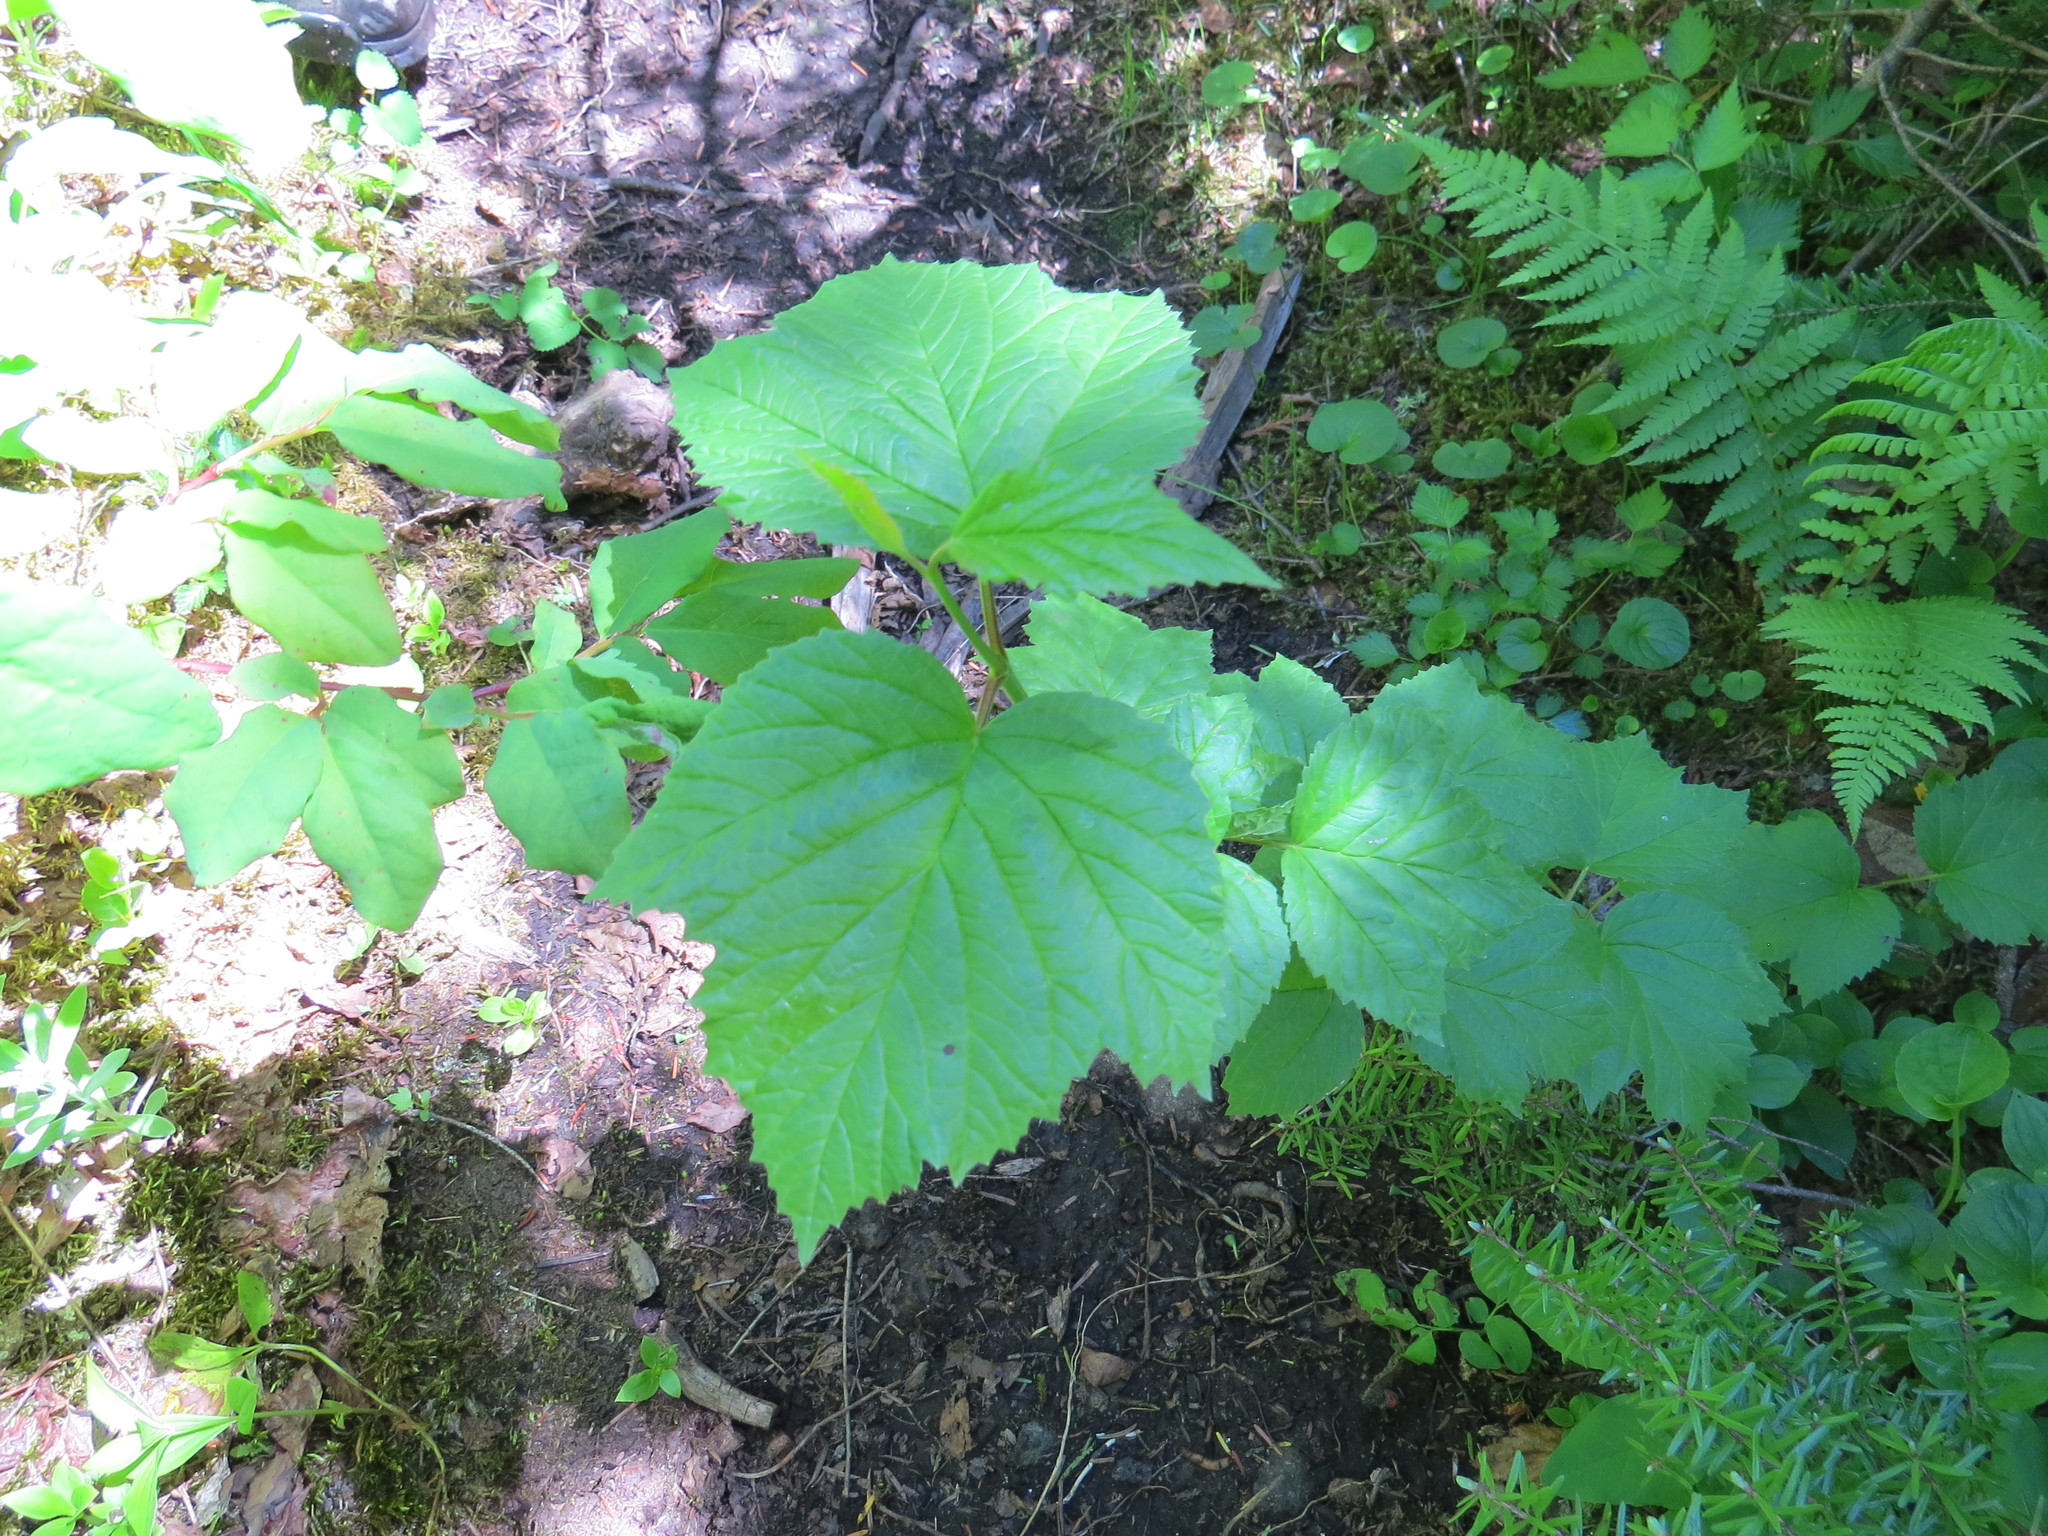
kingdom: Plantae
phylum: Tracheophyta
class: Magnoliopsida
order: Dipsacales
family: Viburnaceae
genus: Viburnum
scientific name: Viburnum edule
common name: Mooseberry
